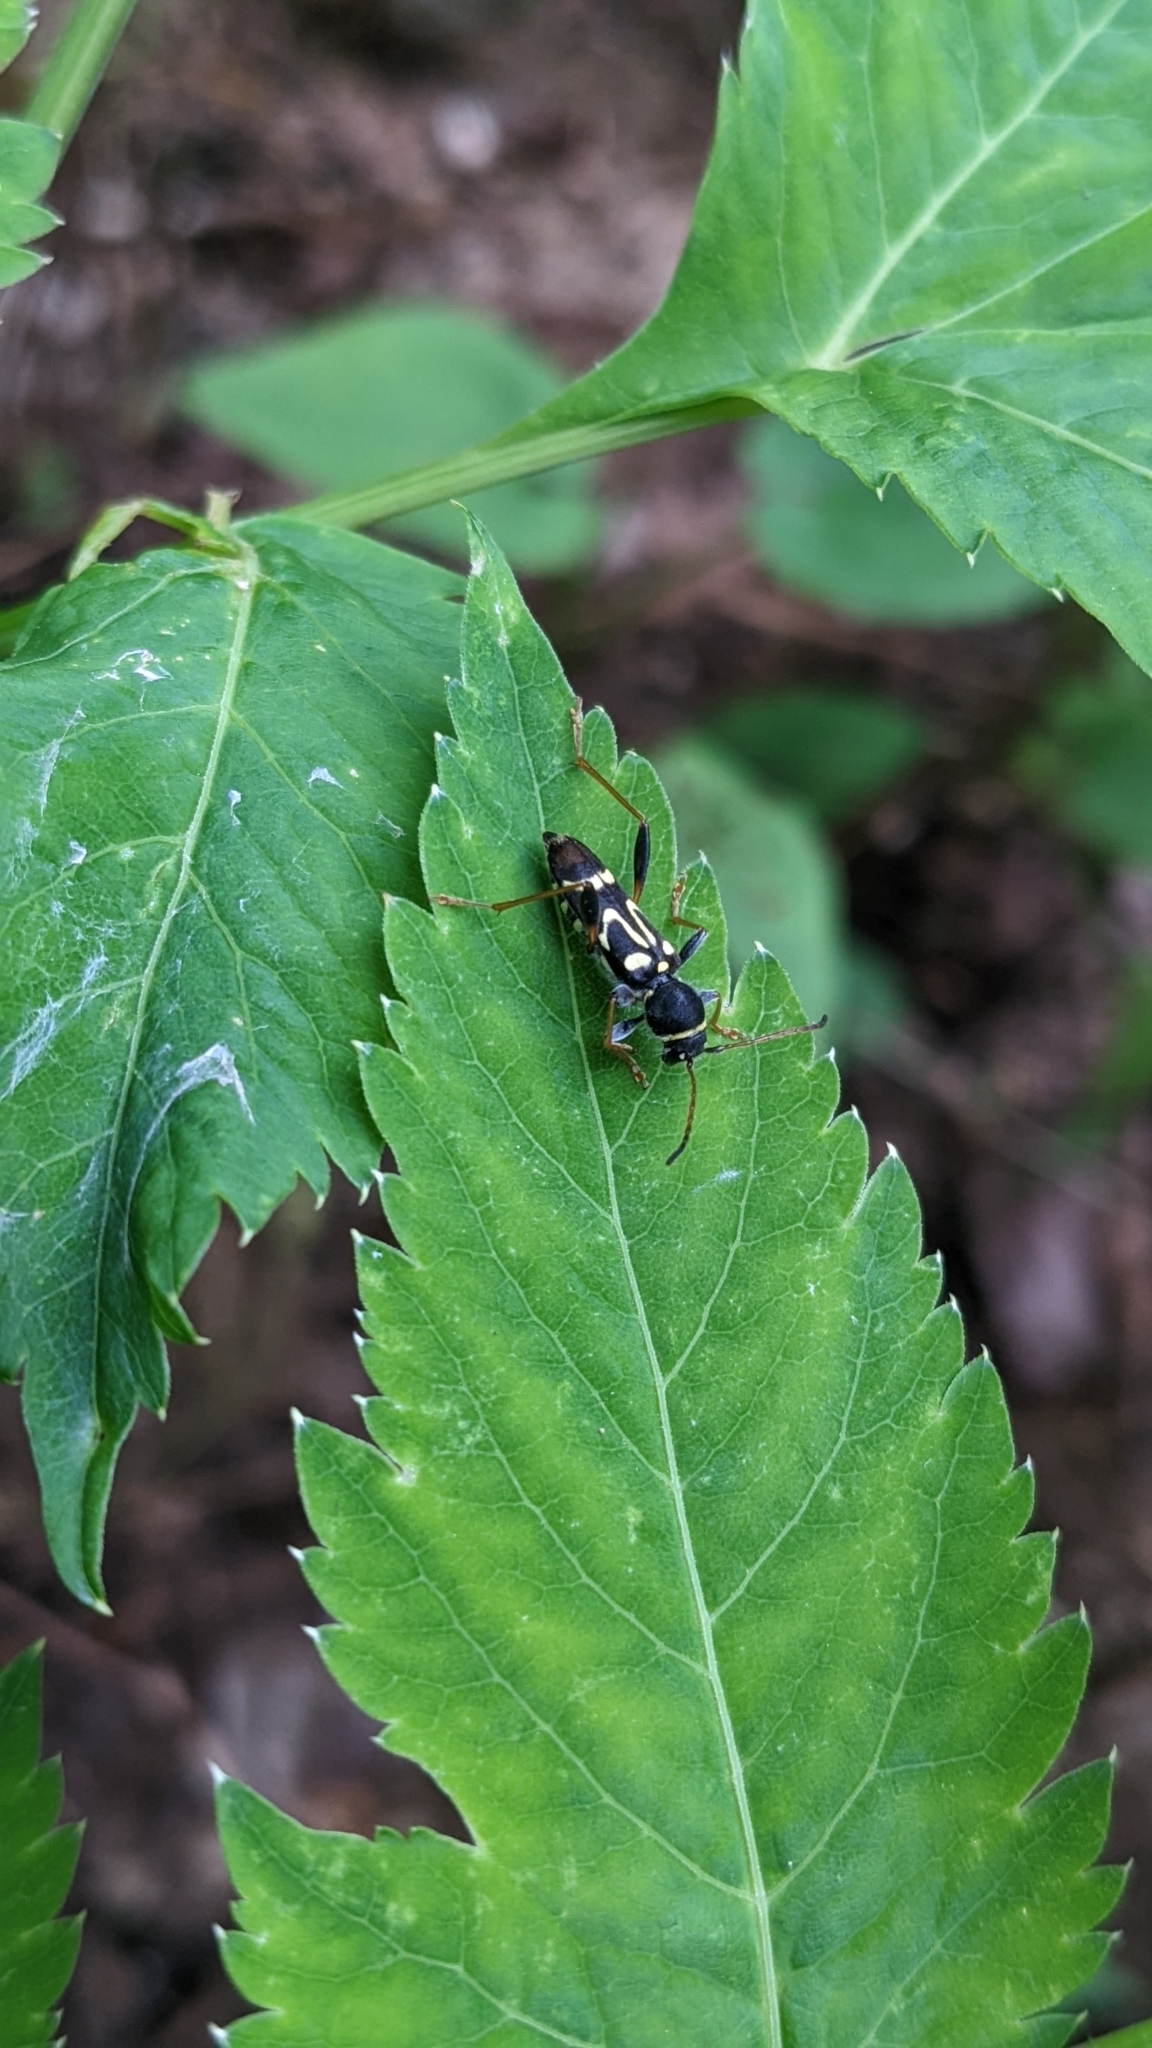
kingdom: Animalia
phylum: Arthropoda
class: Insecta
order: Coleoptera
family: Cerambycidae
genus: Clytus
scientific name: Clytus ruricola
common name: Round-necked longhorn beetle
